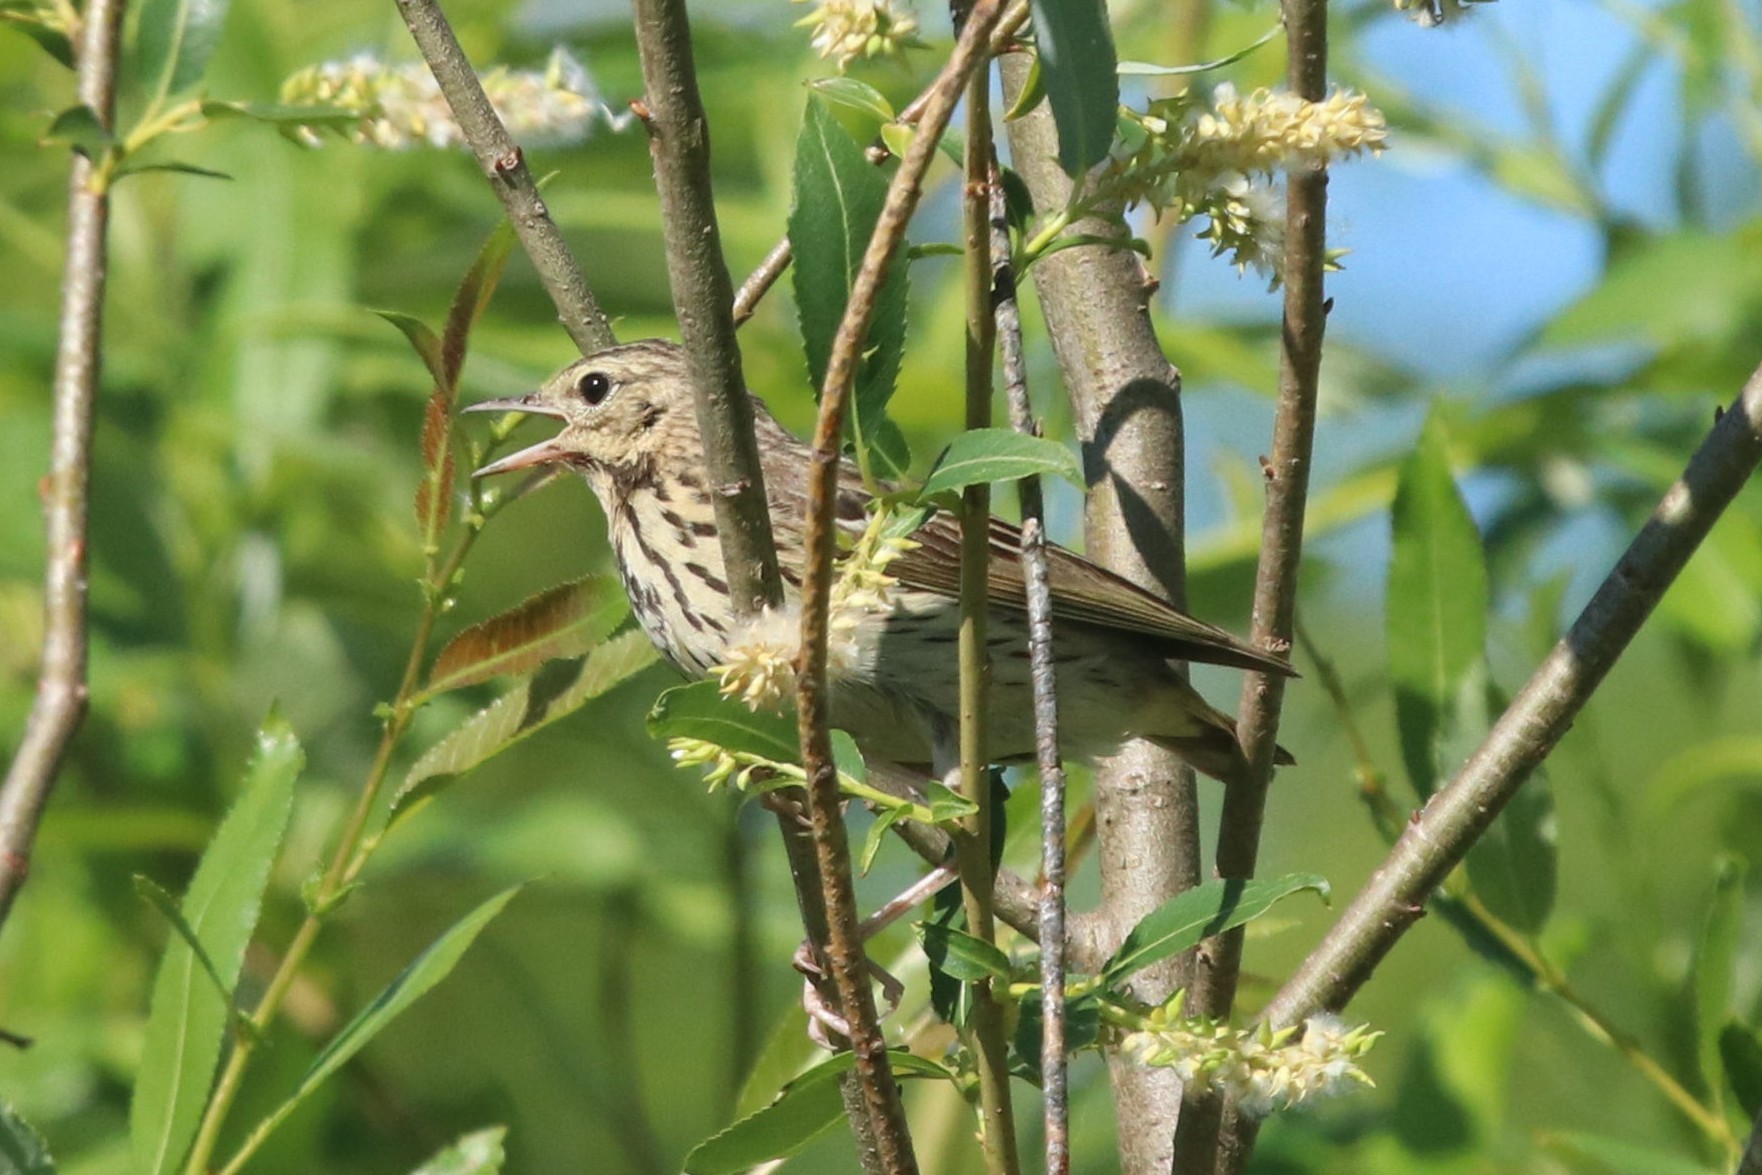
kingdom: Animalia
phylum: Chordata
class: Aves
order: Passeriformes
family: Motacillidae
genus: Anthus
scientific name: Anthus trivialis
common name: Tree pipit
